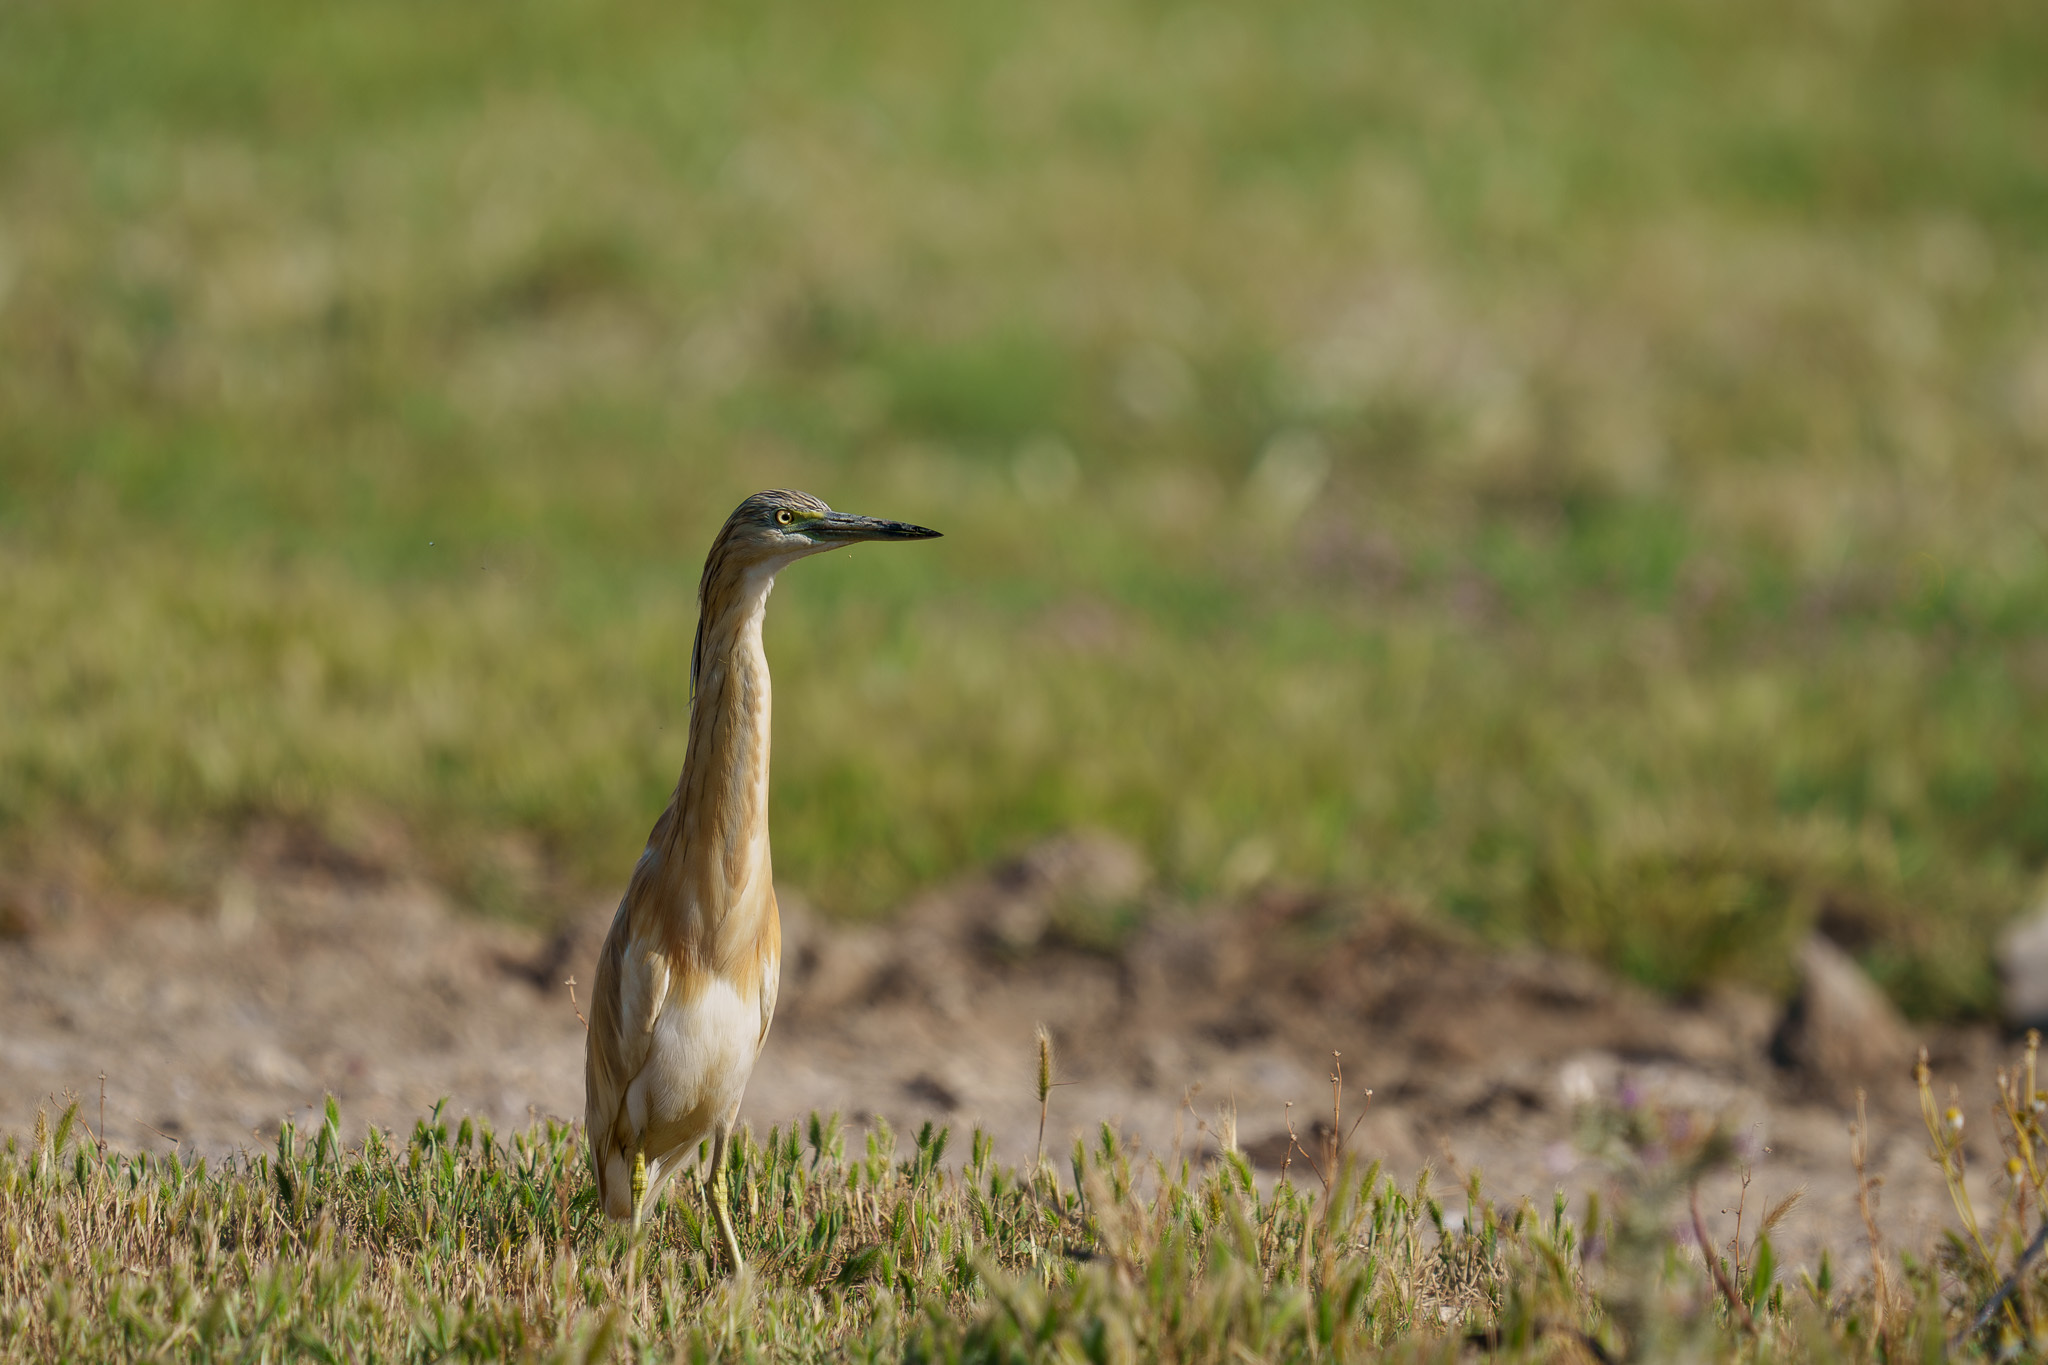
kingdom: Animalia
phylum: Chordata
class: Aves
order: Pelecaniformes
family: Ardeidae
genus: Ardeola
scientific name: Ardeola ralloides
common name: Squacco heron
